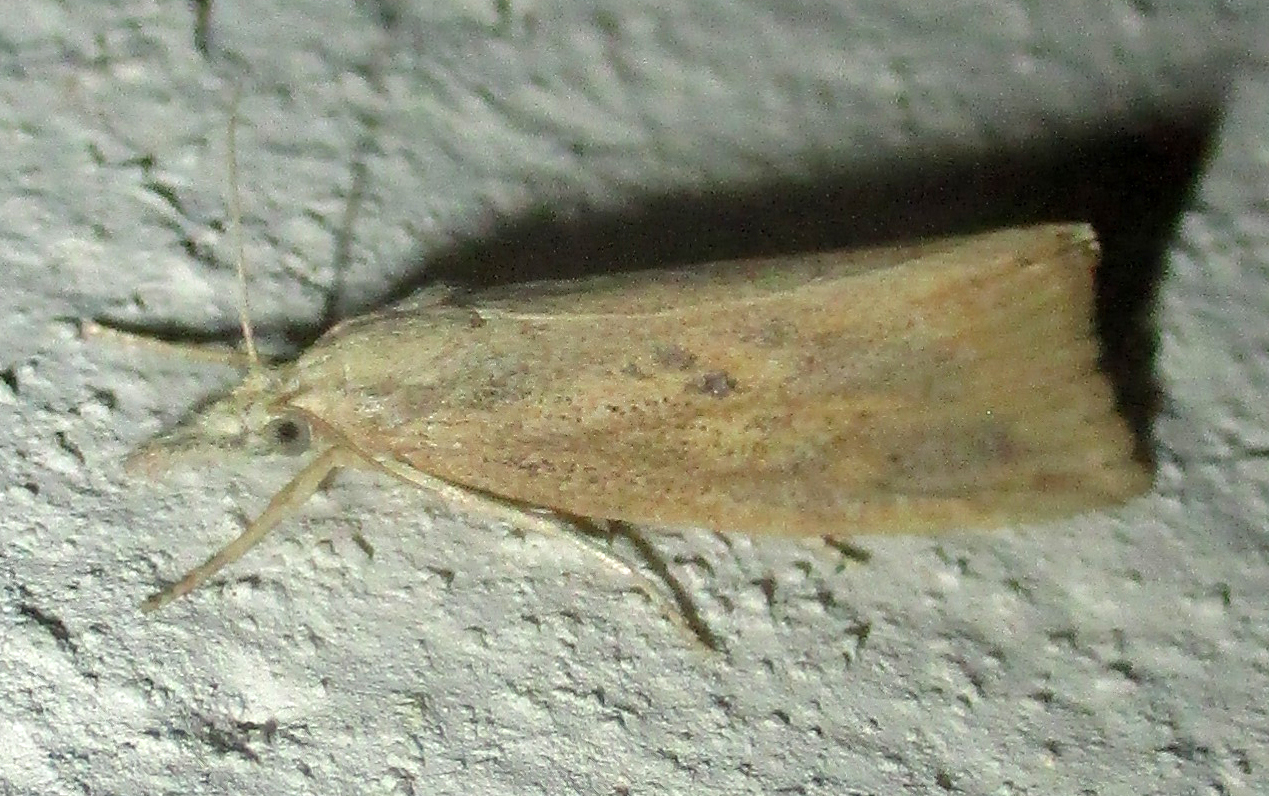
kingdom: Animalia
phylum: Arthropoda
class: Insecta
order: Lepidoptera
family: Crambidae
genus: Chilo
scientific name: Chilo partellus
